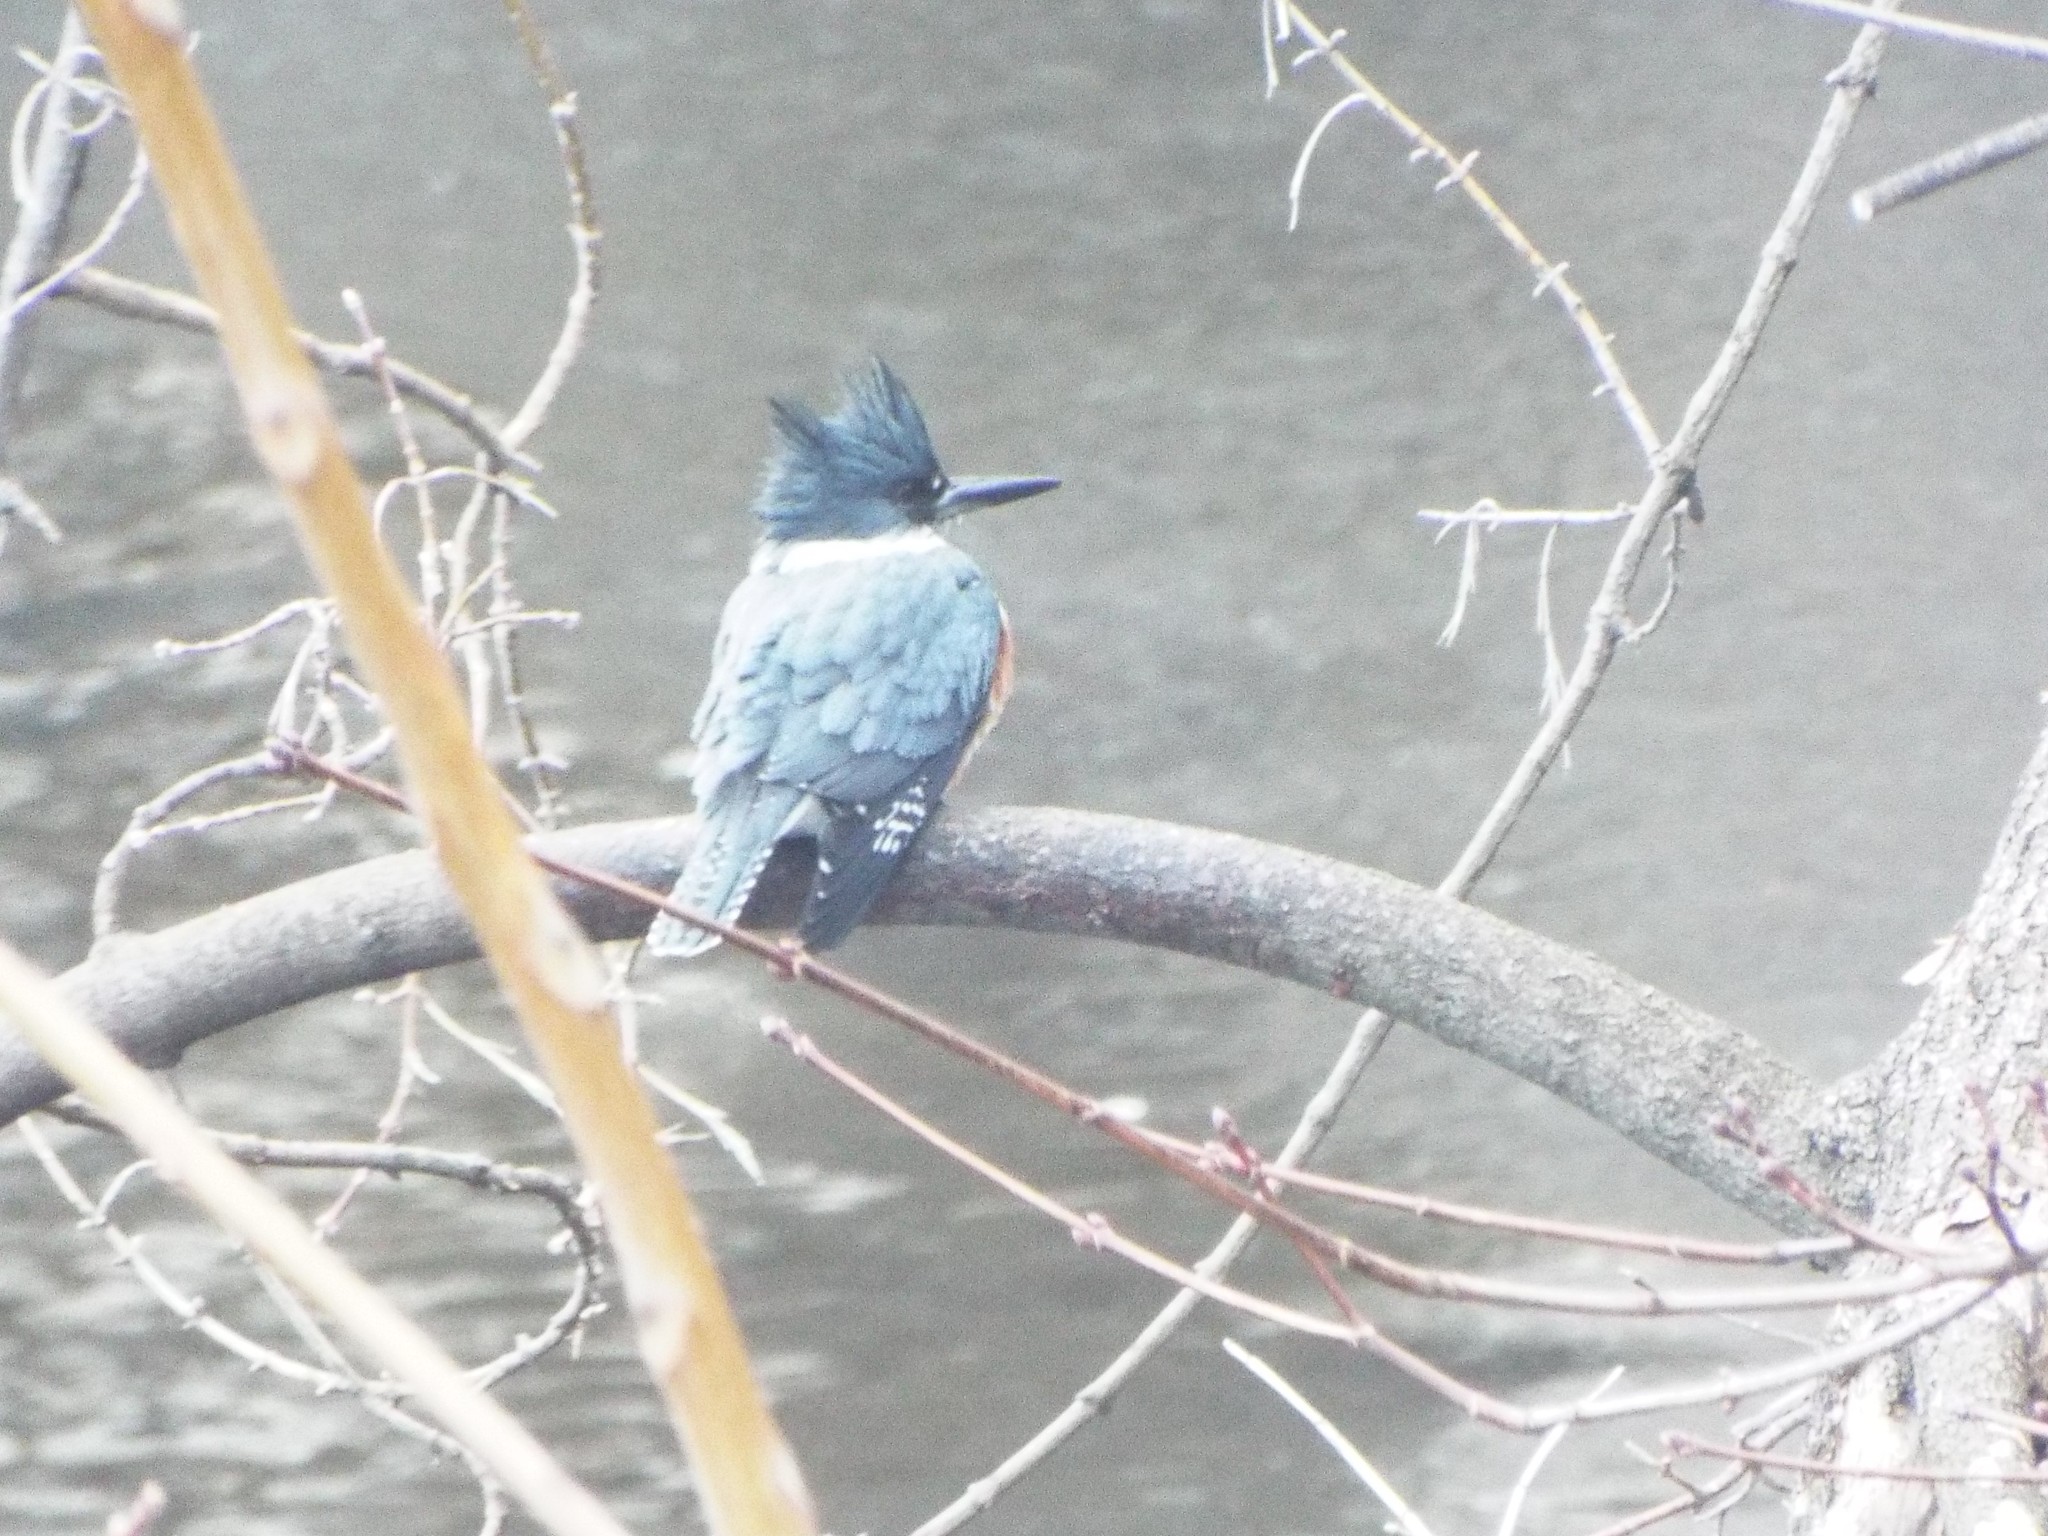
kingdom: Animalia
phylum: Chordata
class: Aves
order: Coraciiformes
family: Alcedinidae
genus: Megaceryle
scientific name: Megaceryle alcyon
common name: Belted kingfisher
